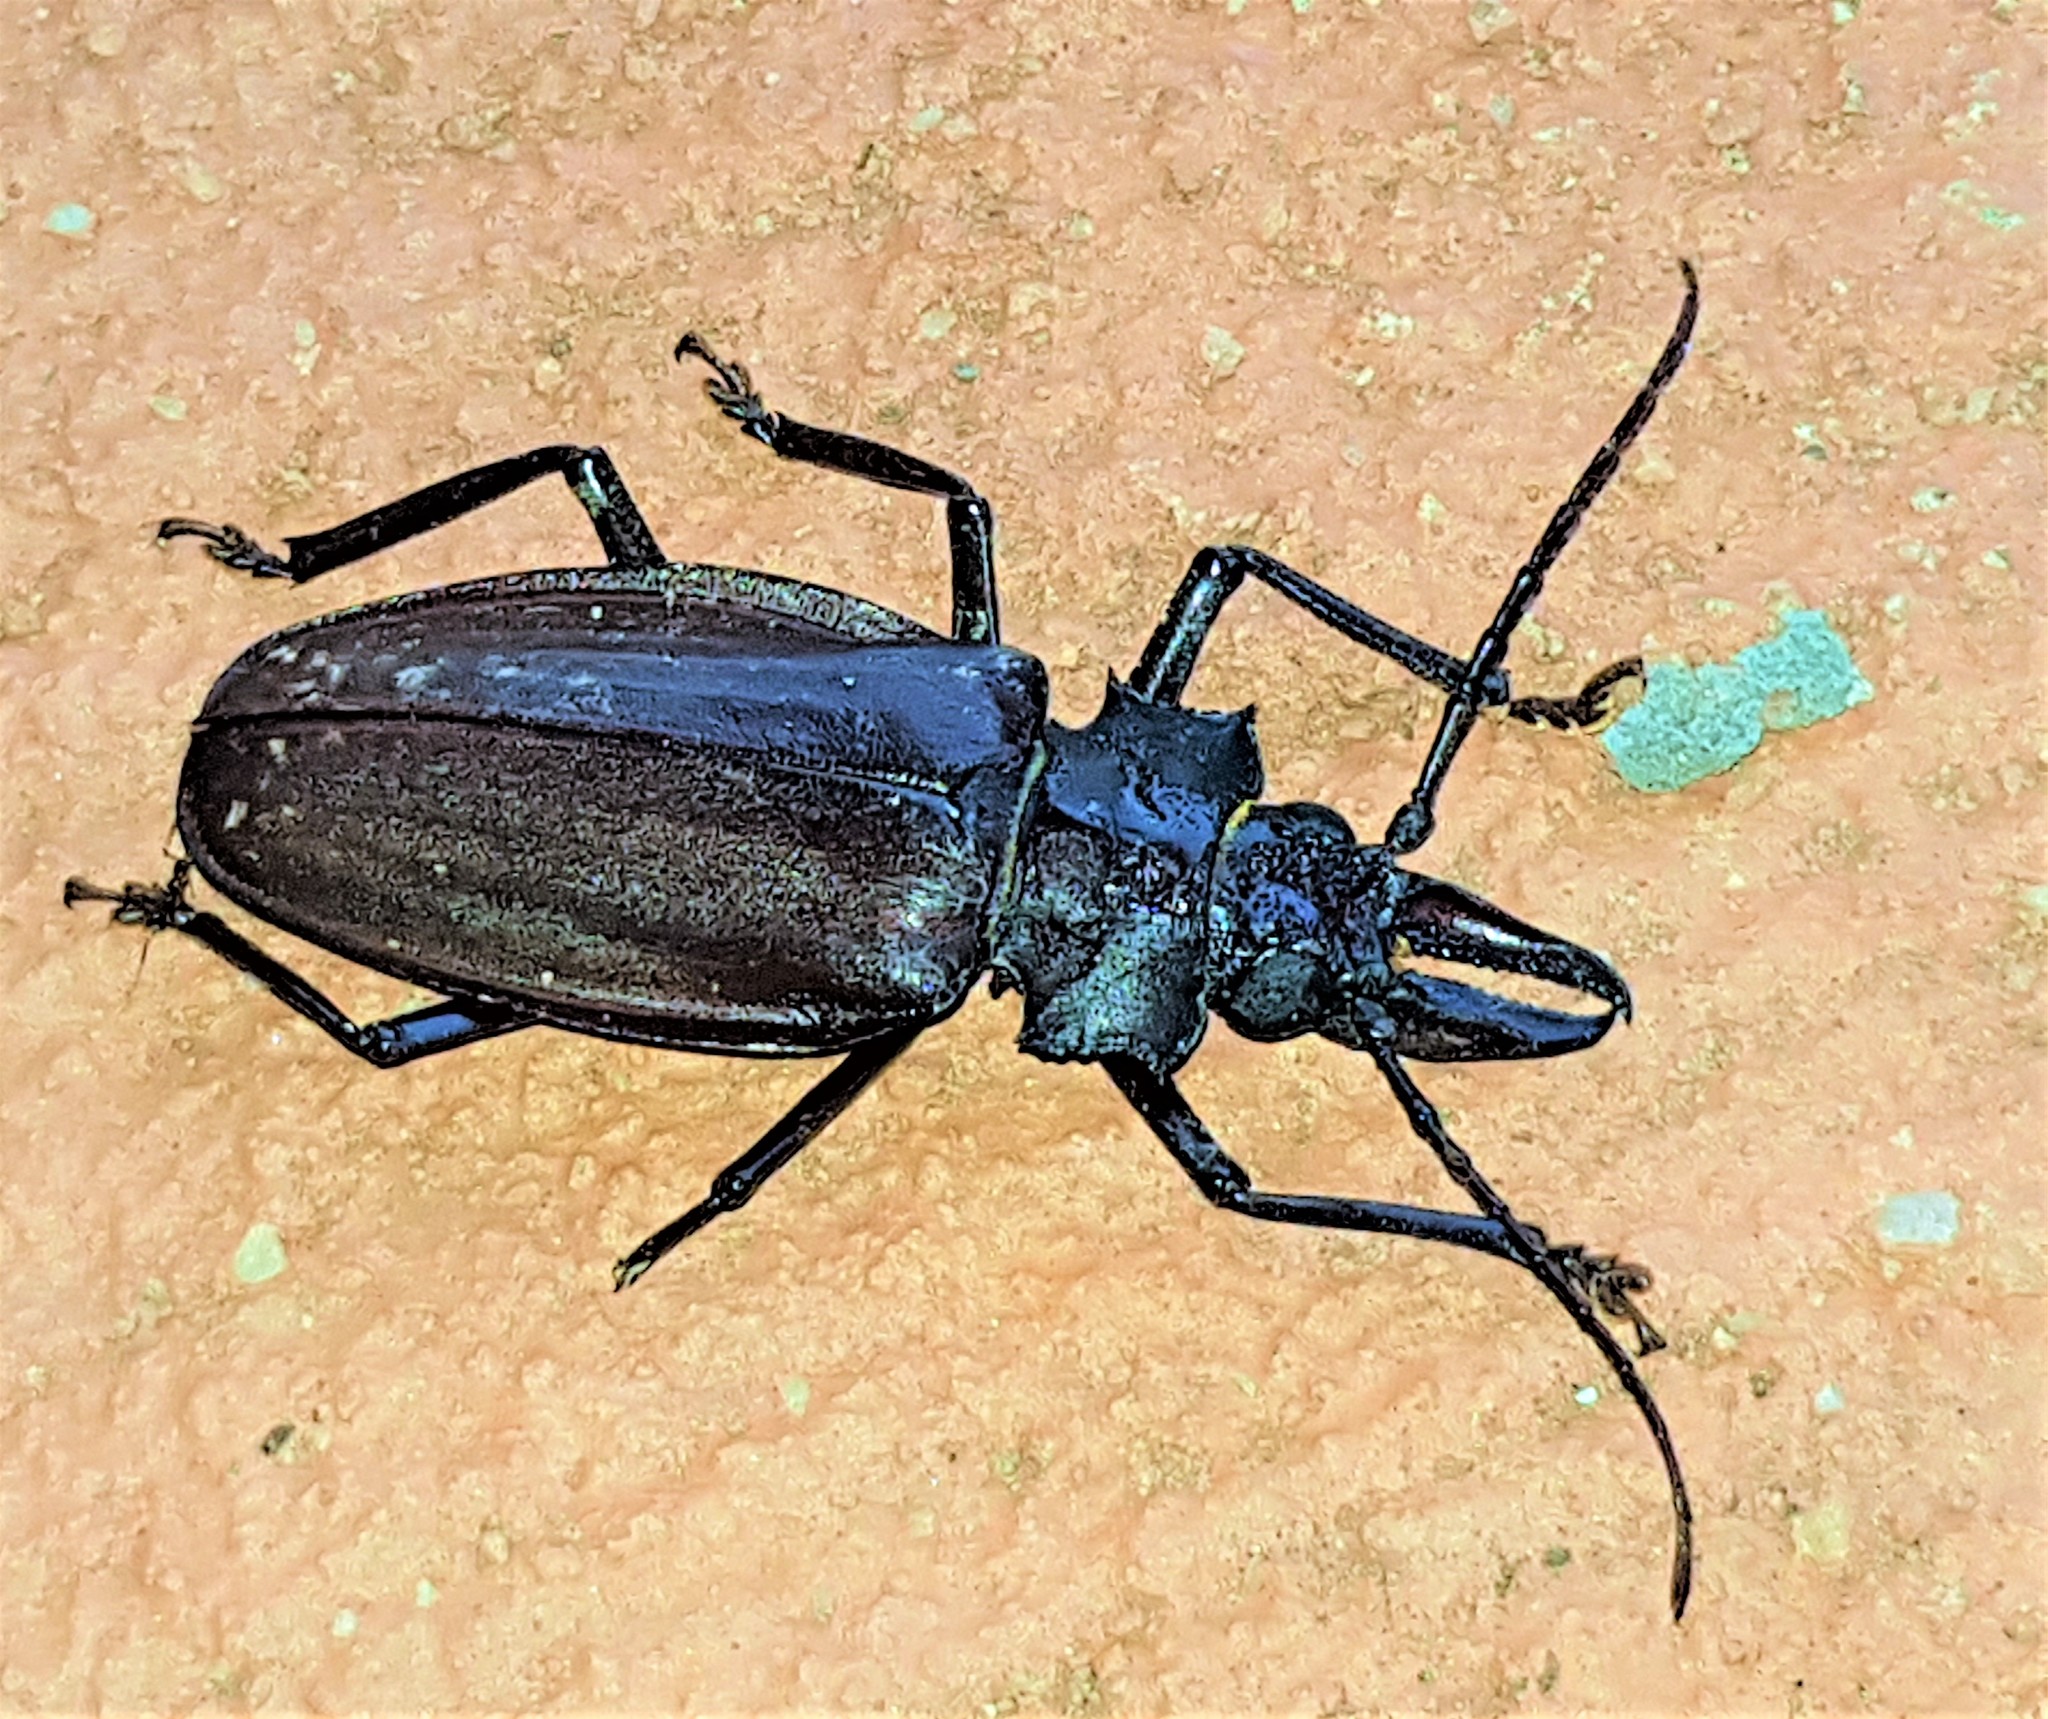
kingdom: Animalia
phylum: Arthropoda
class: Insecta
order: Coleoptera
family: Cerambycidae
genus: Macrodontia
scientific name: Macrodontia crenata
